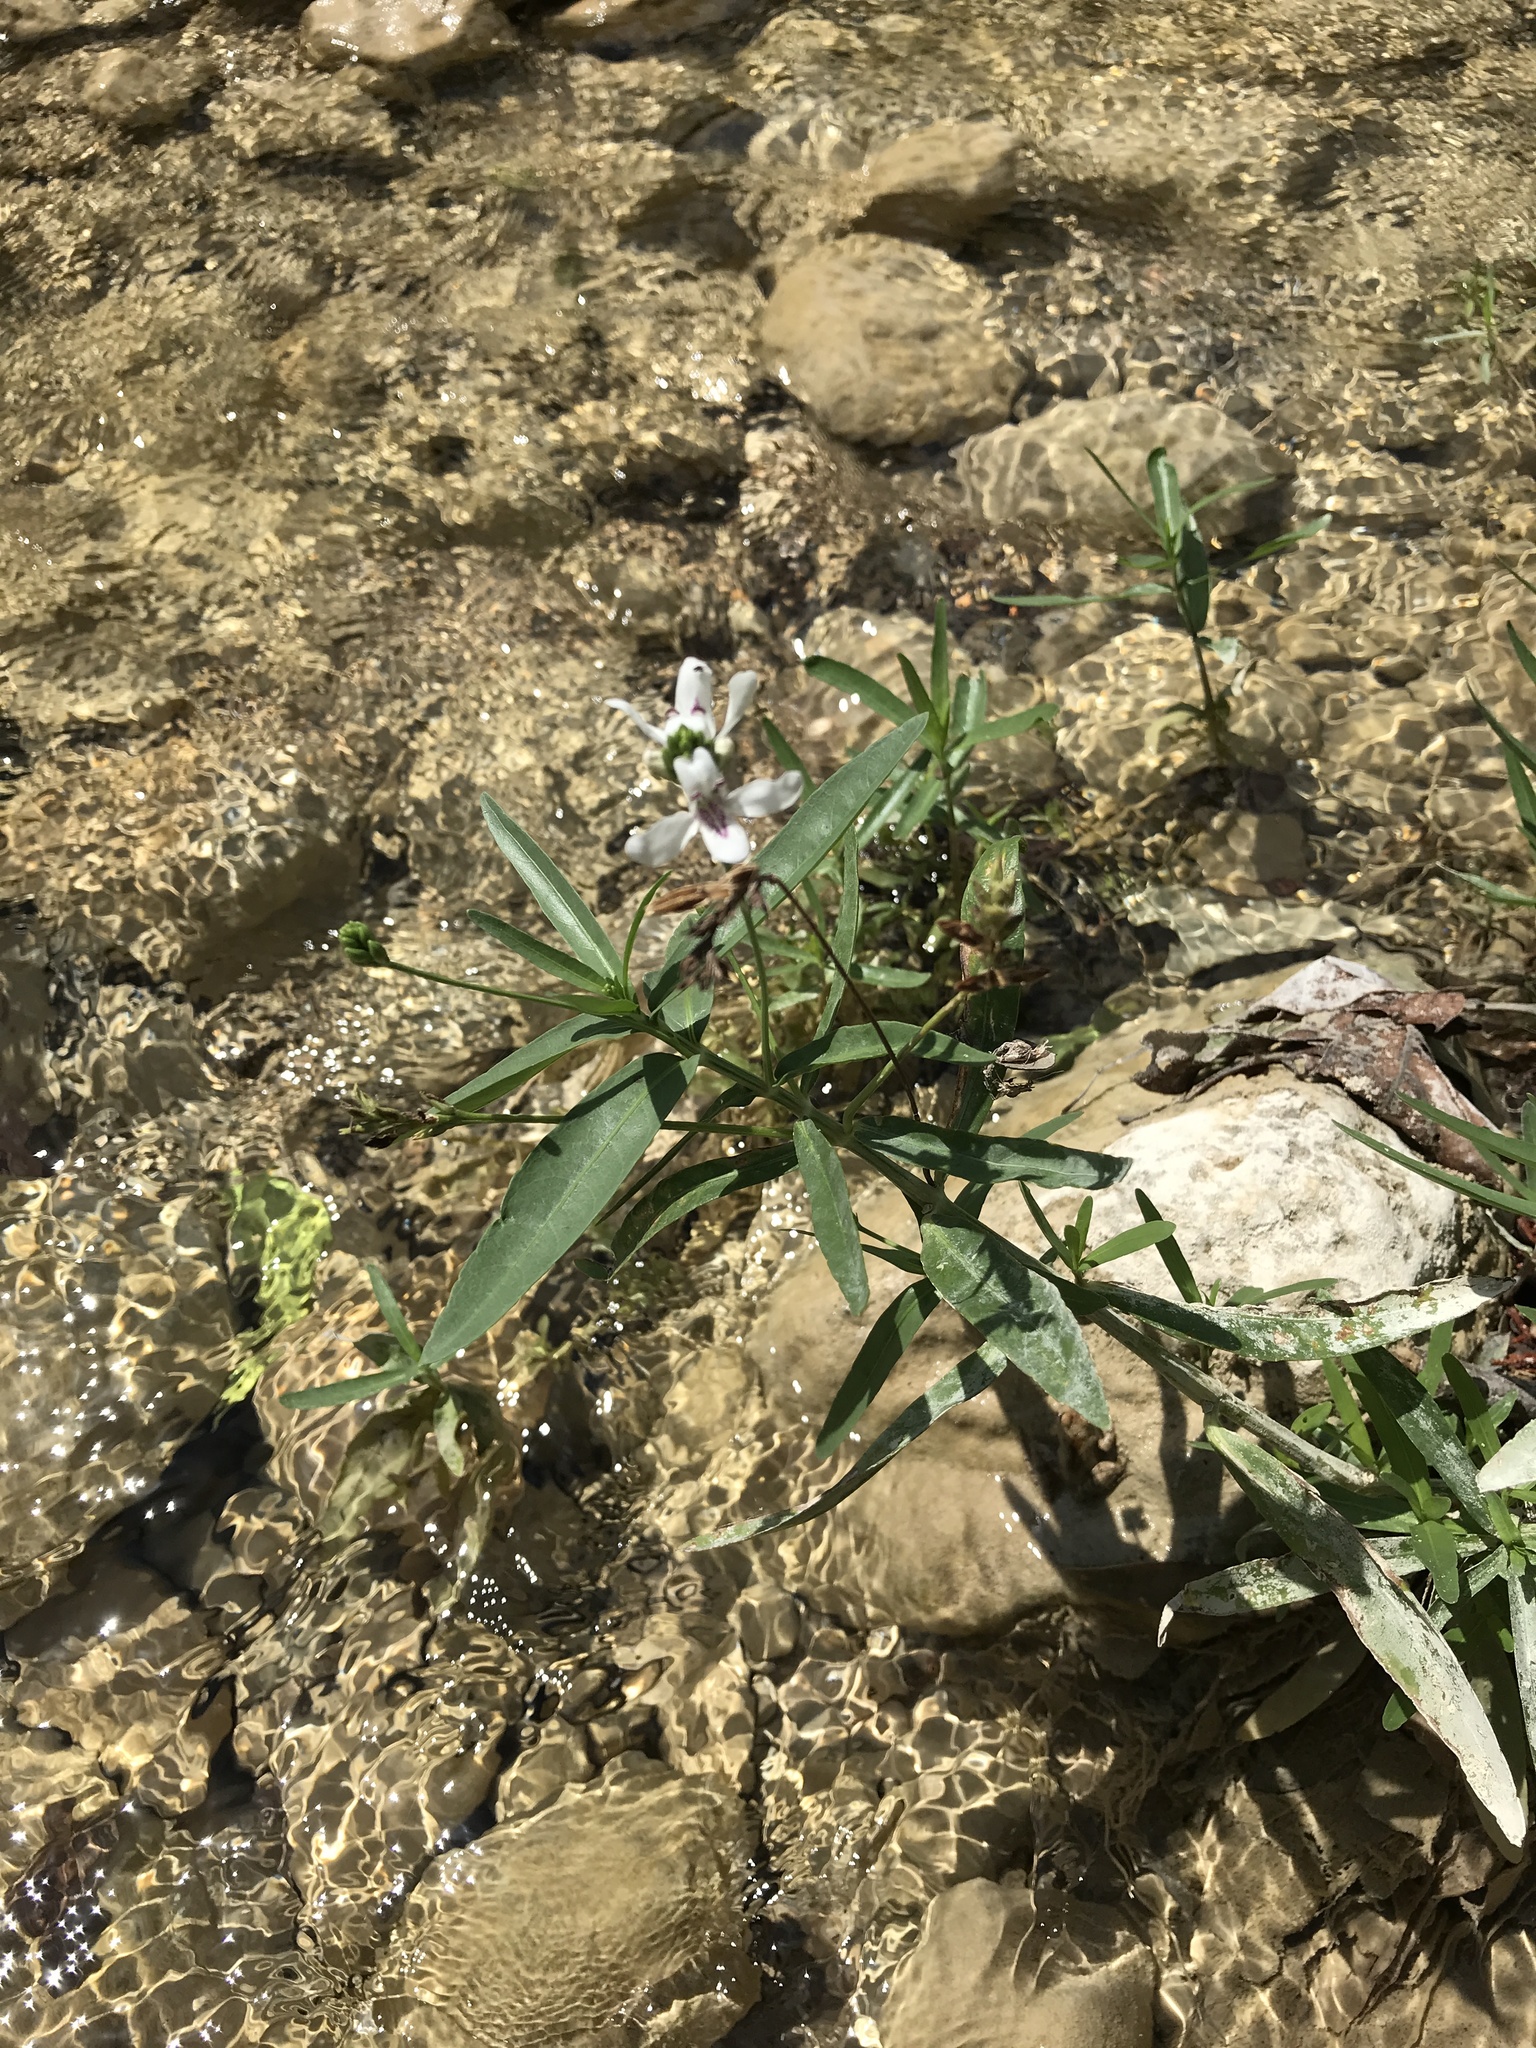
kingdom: Plantae
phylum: Tracheophyta
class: Magnoliopsida
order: Lamiales
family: Acanthaceae
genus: Dianthera
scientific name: Dianthera americana
